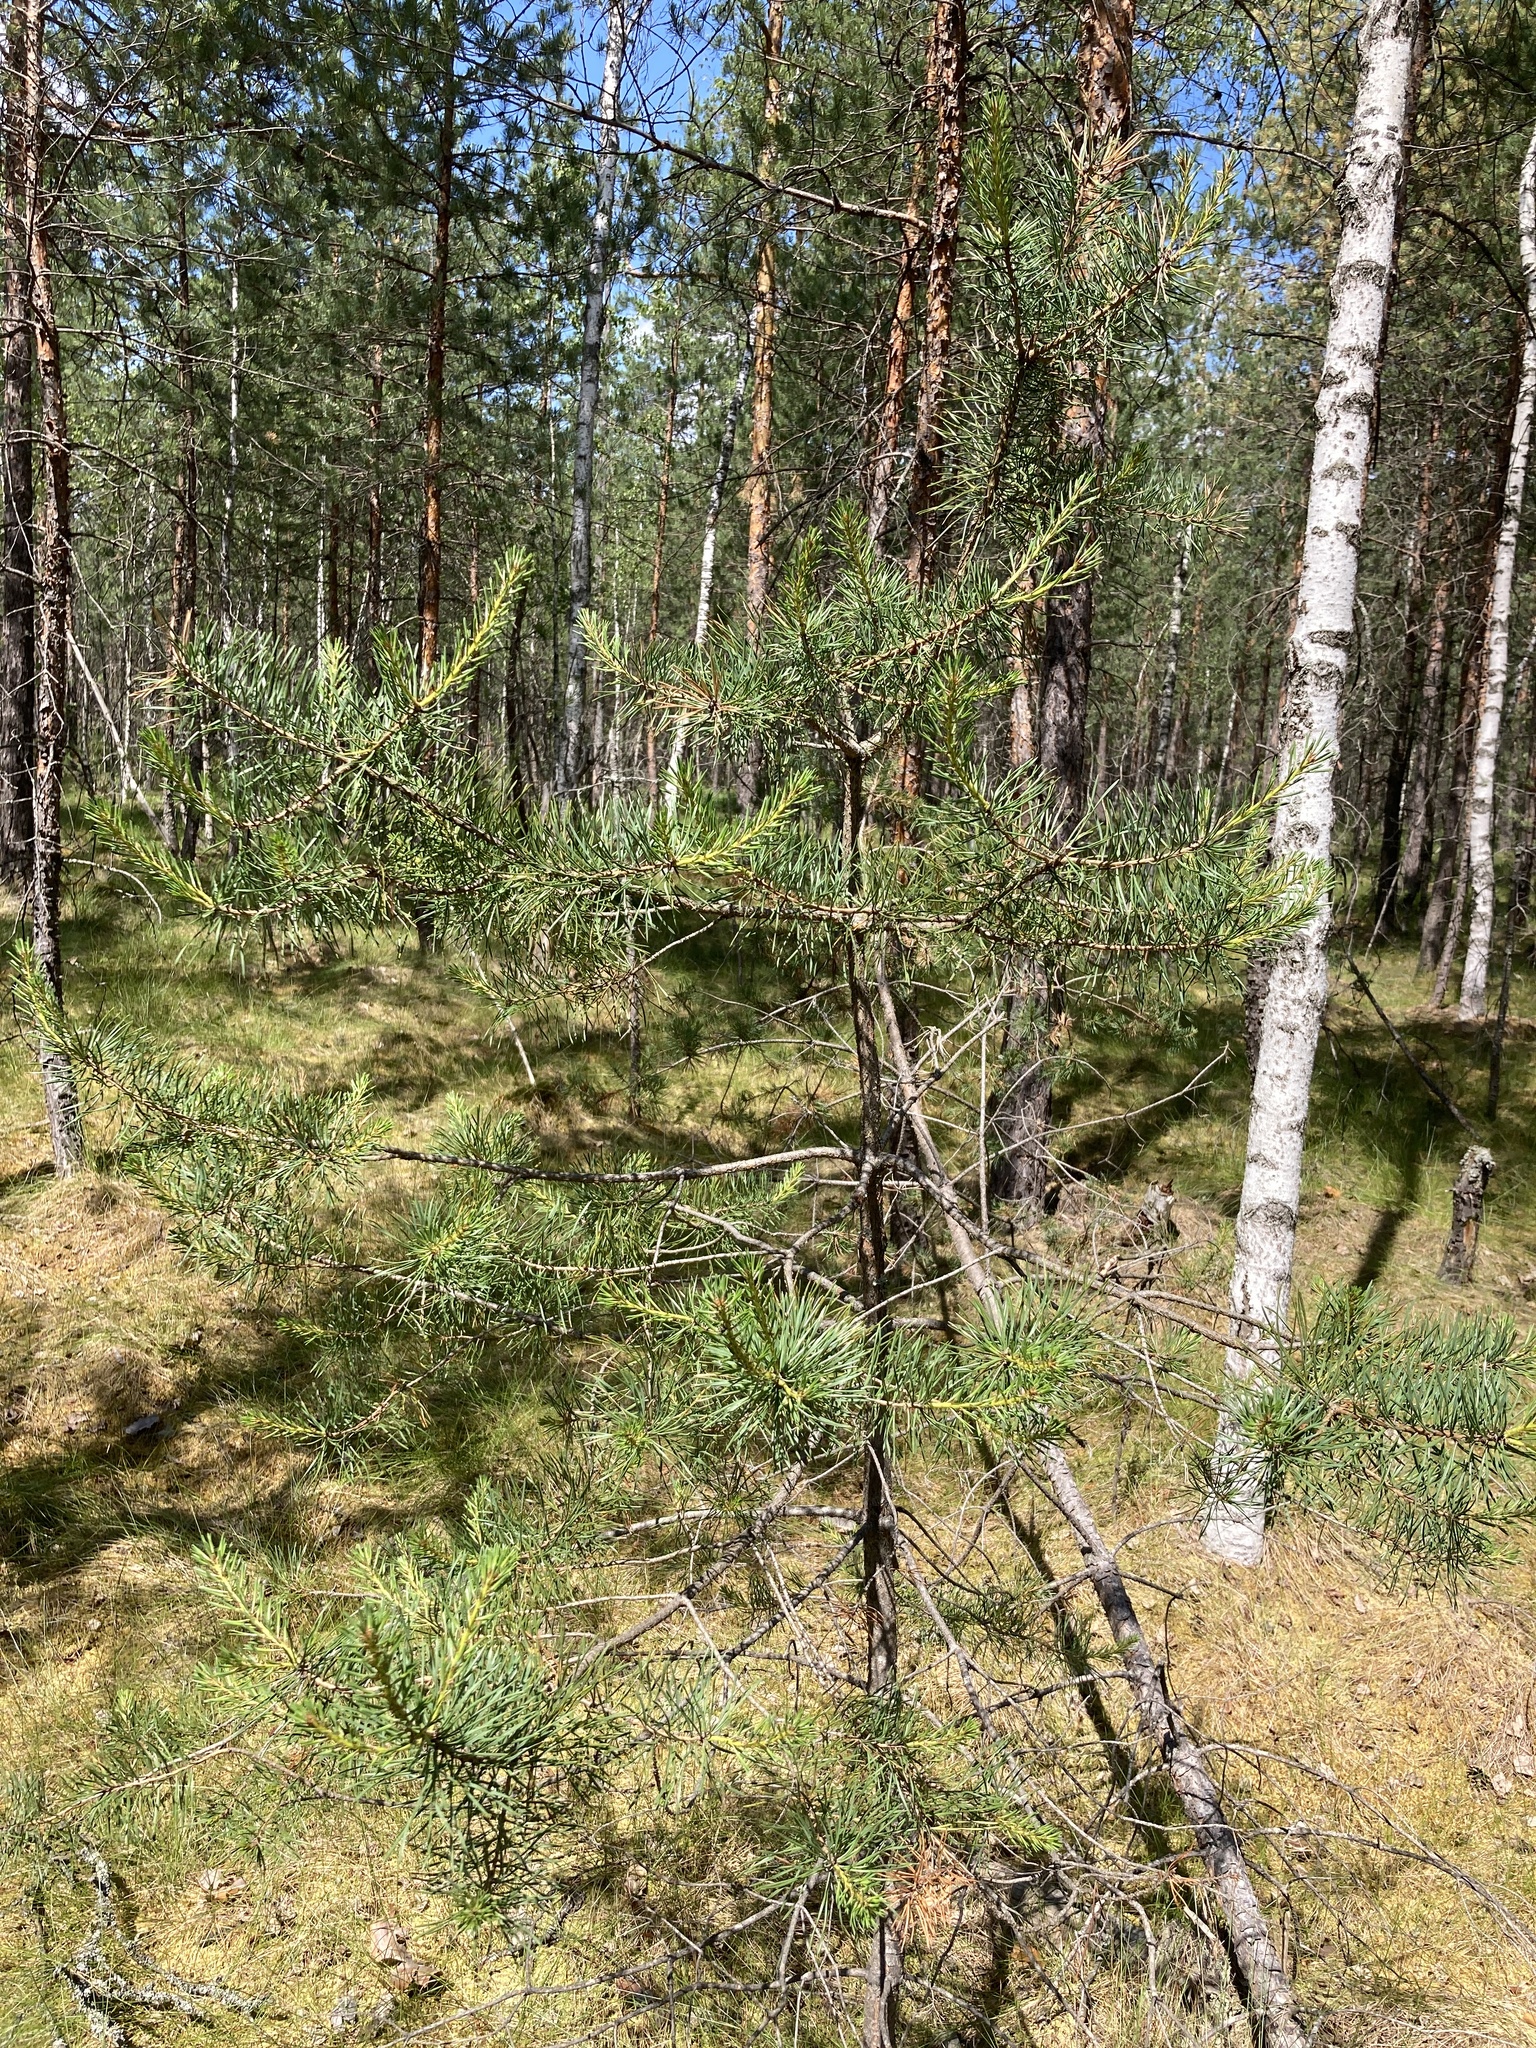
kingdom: Plantae
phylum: Tracheophyta
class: Pinopsida
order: Pinales
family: Pinaceae
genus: Pinus
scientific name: Pinus sylvestris
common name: Scots pine
